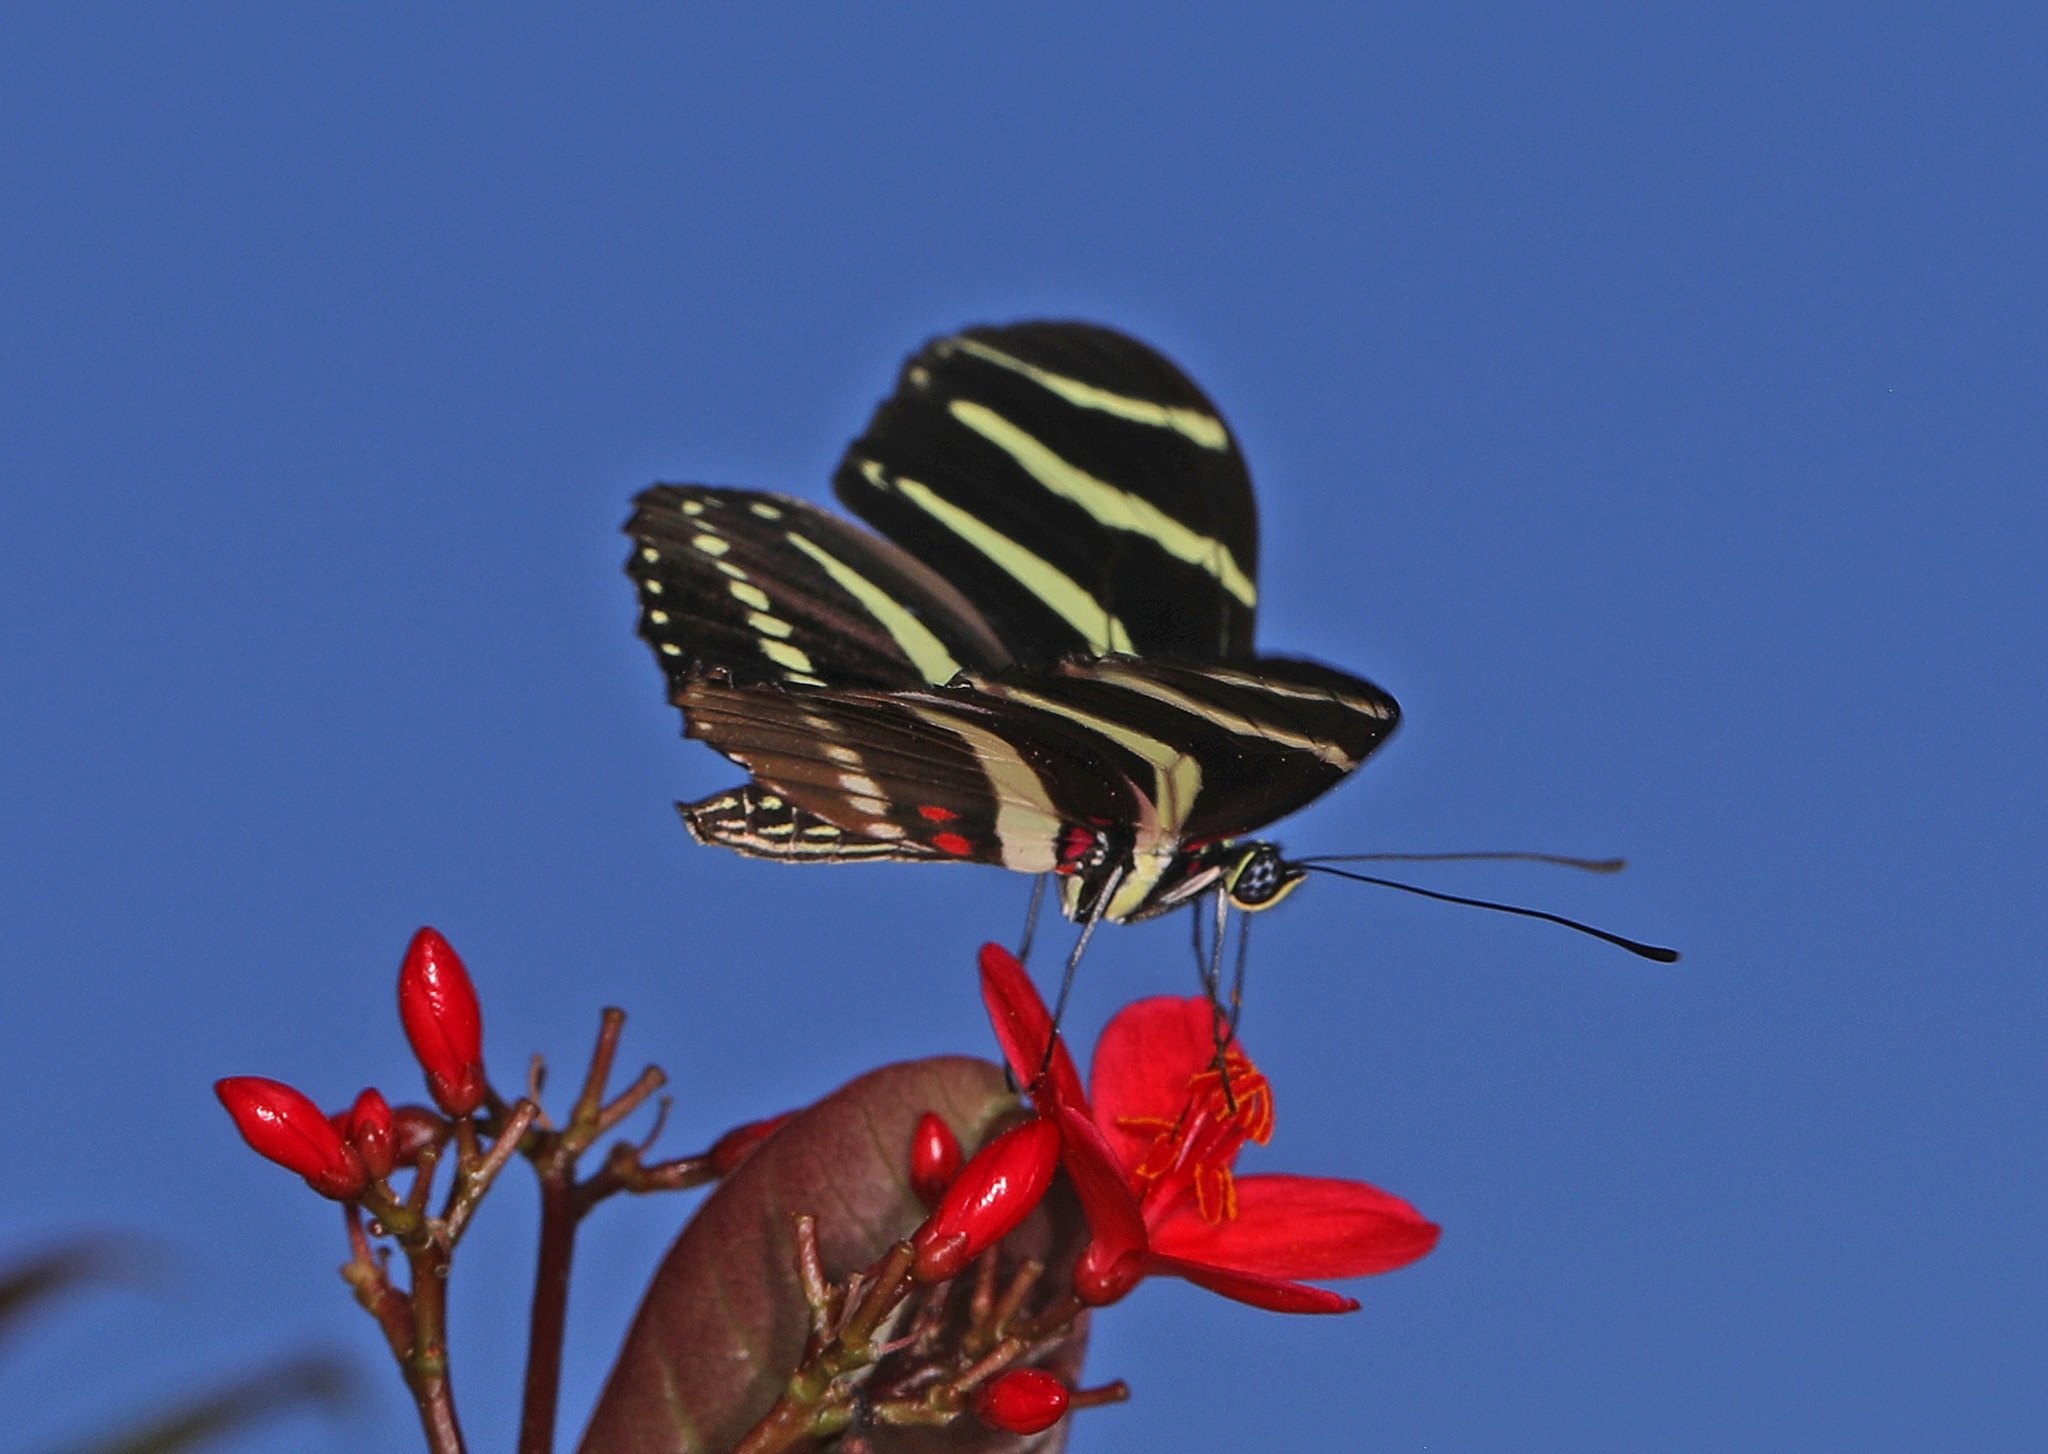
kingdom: Animalia
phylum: Arthropoda
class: Insecta
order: Lepidoptera
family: Nymphalidae
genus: Heliconius
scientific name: Heliconius charithonia
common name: Zebra long wing
